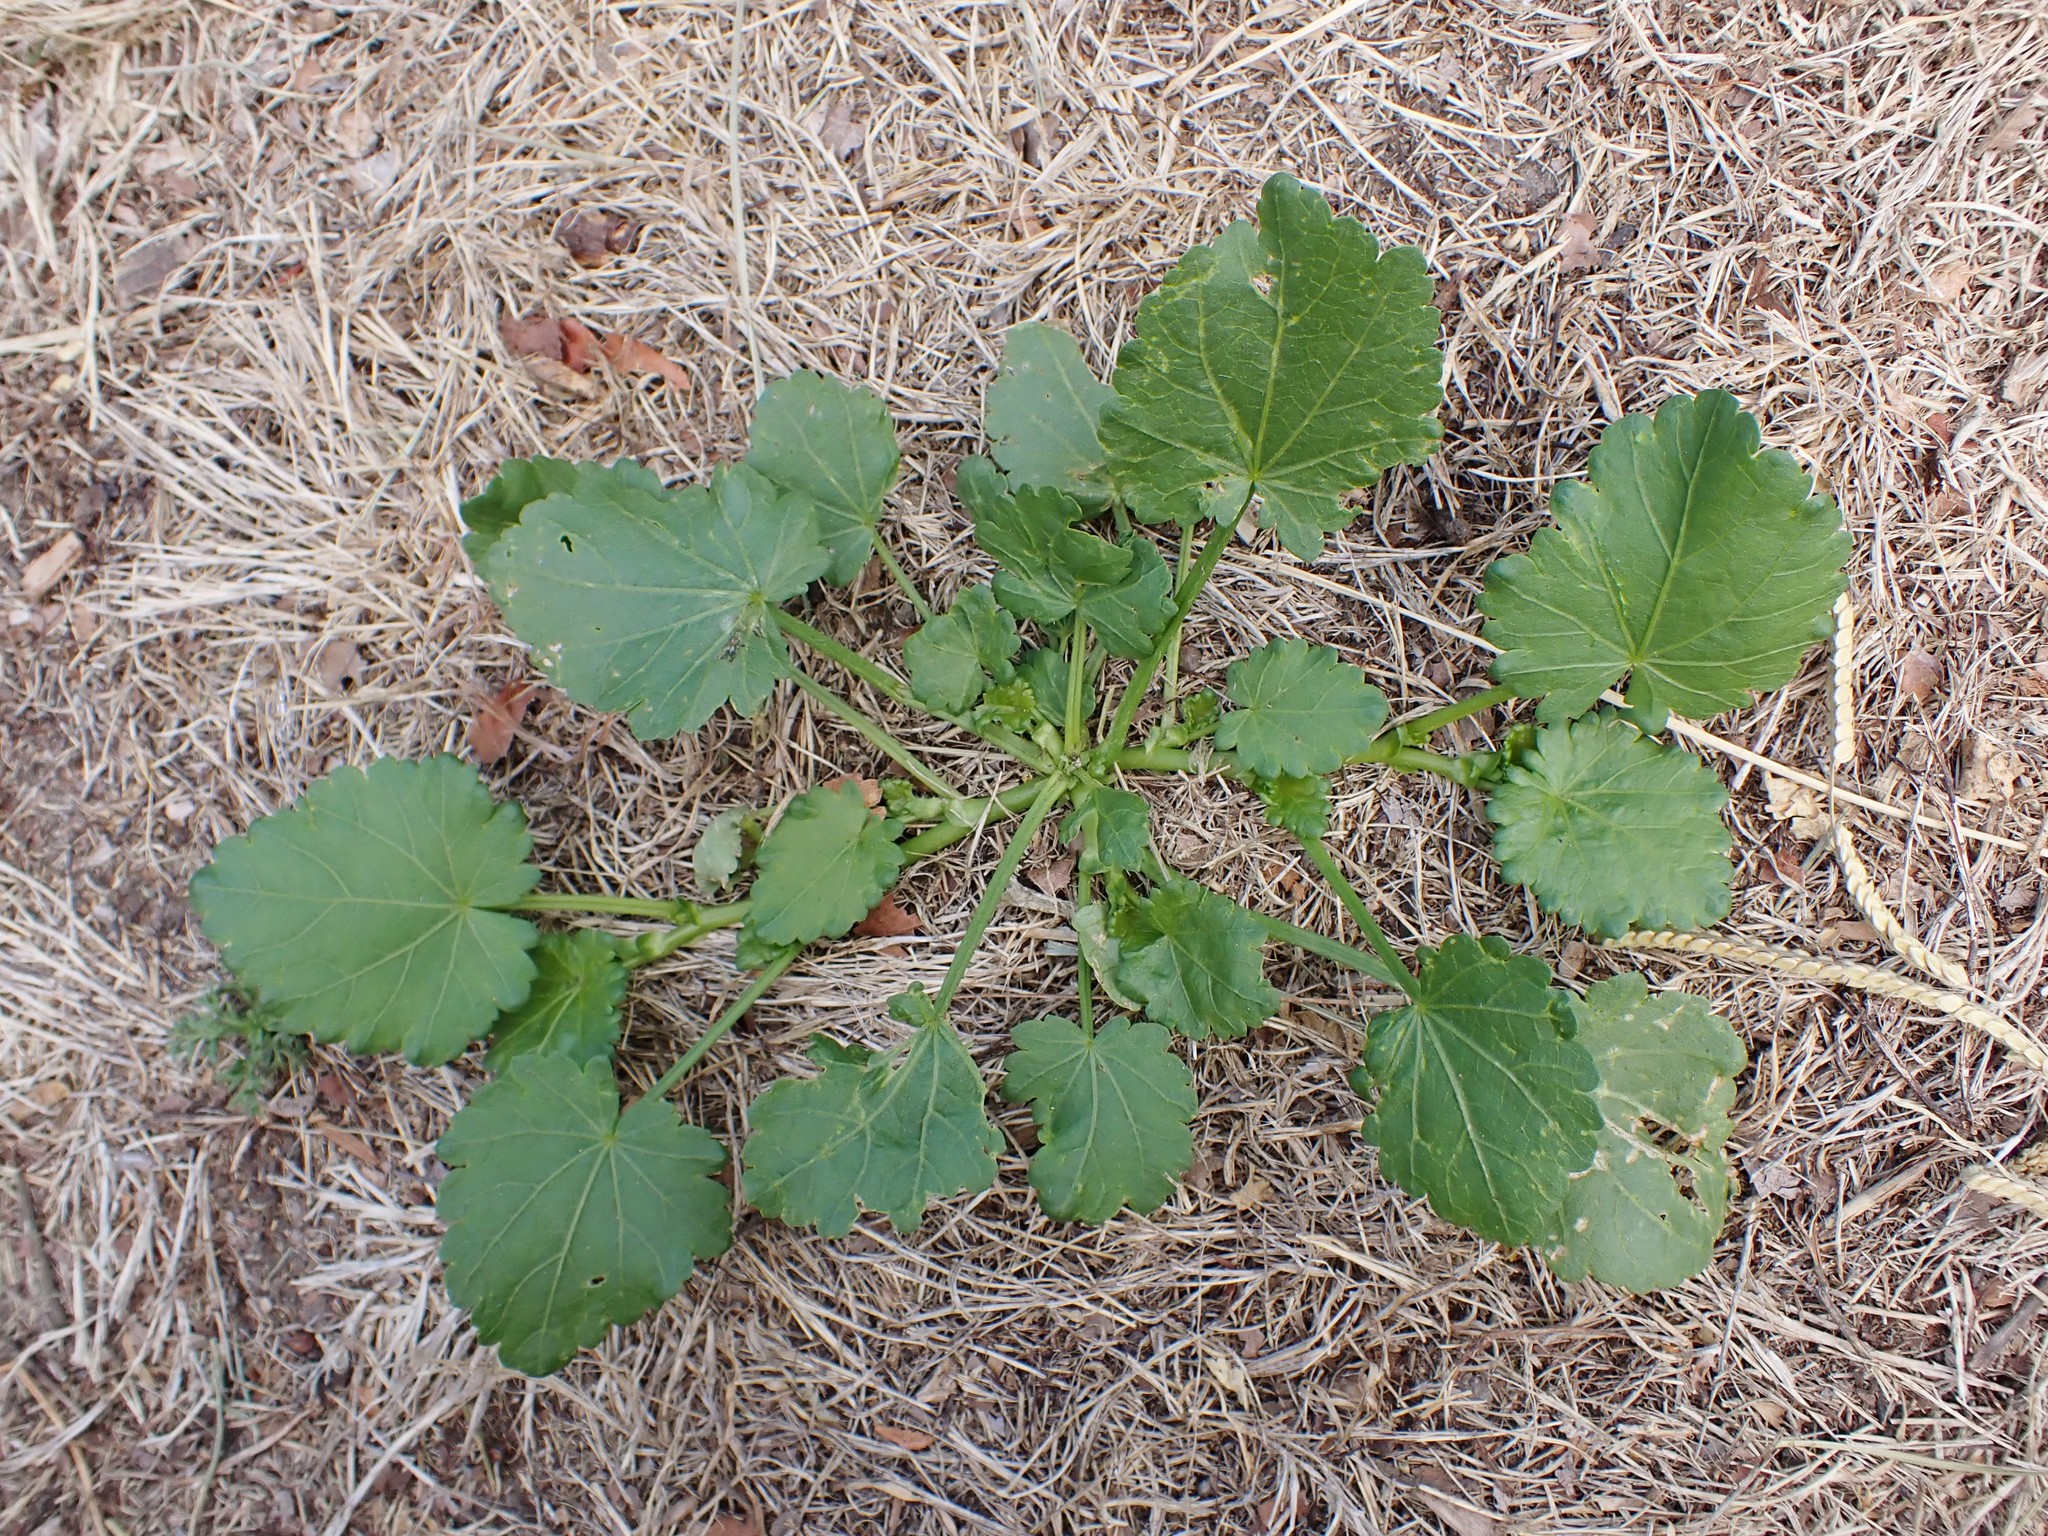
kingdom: Plantae
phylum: Tracheophyta
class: Magnoliopsida
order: Malvales
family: Malvaceae
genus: Modiola
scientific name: Modiola caroliniana
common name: Carolina bristlemallow
